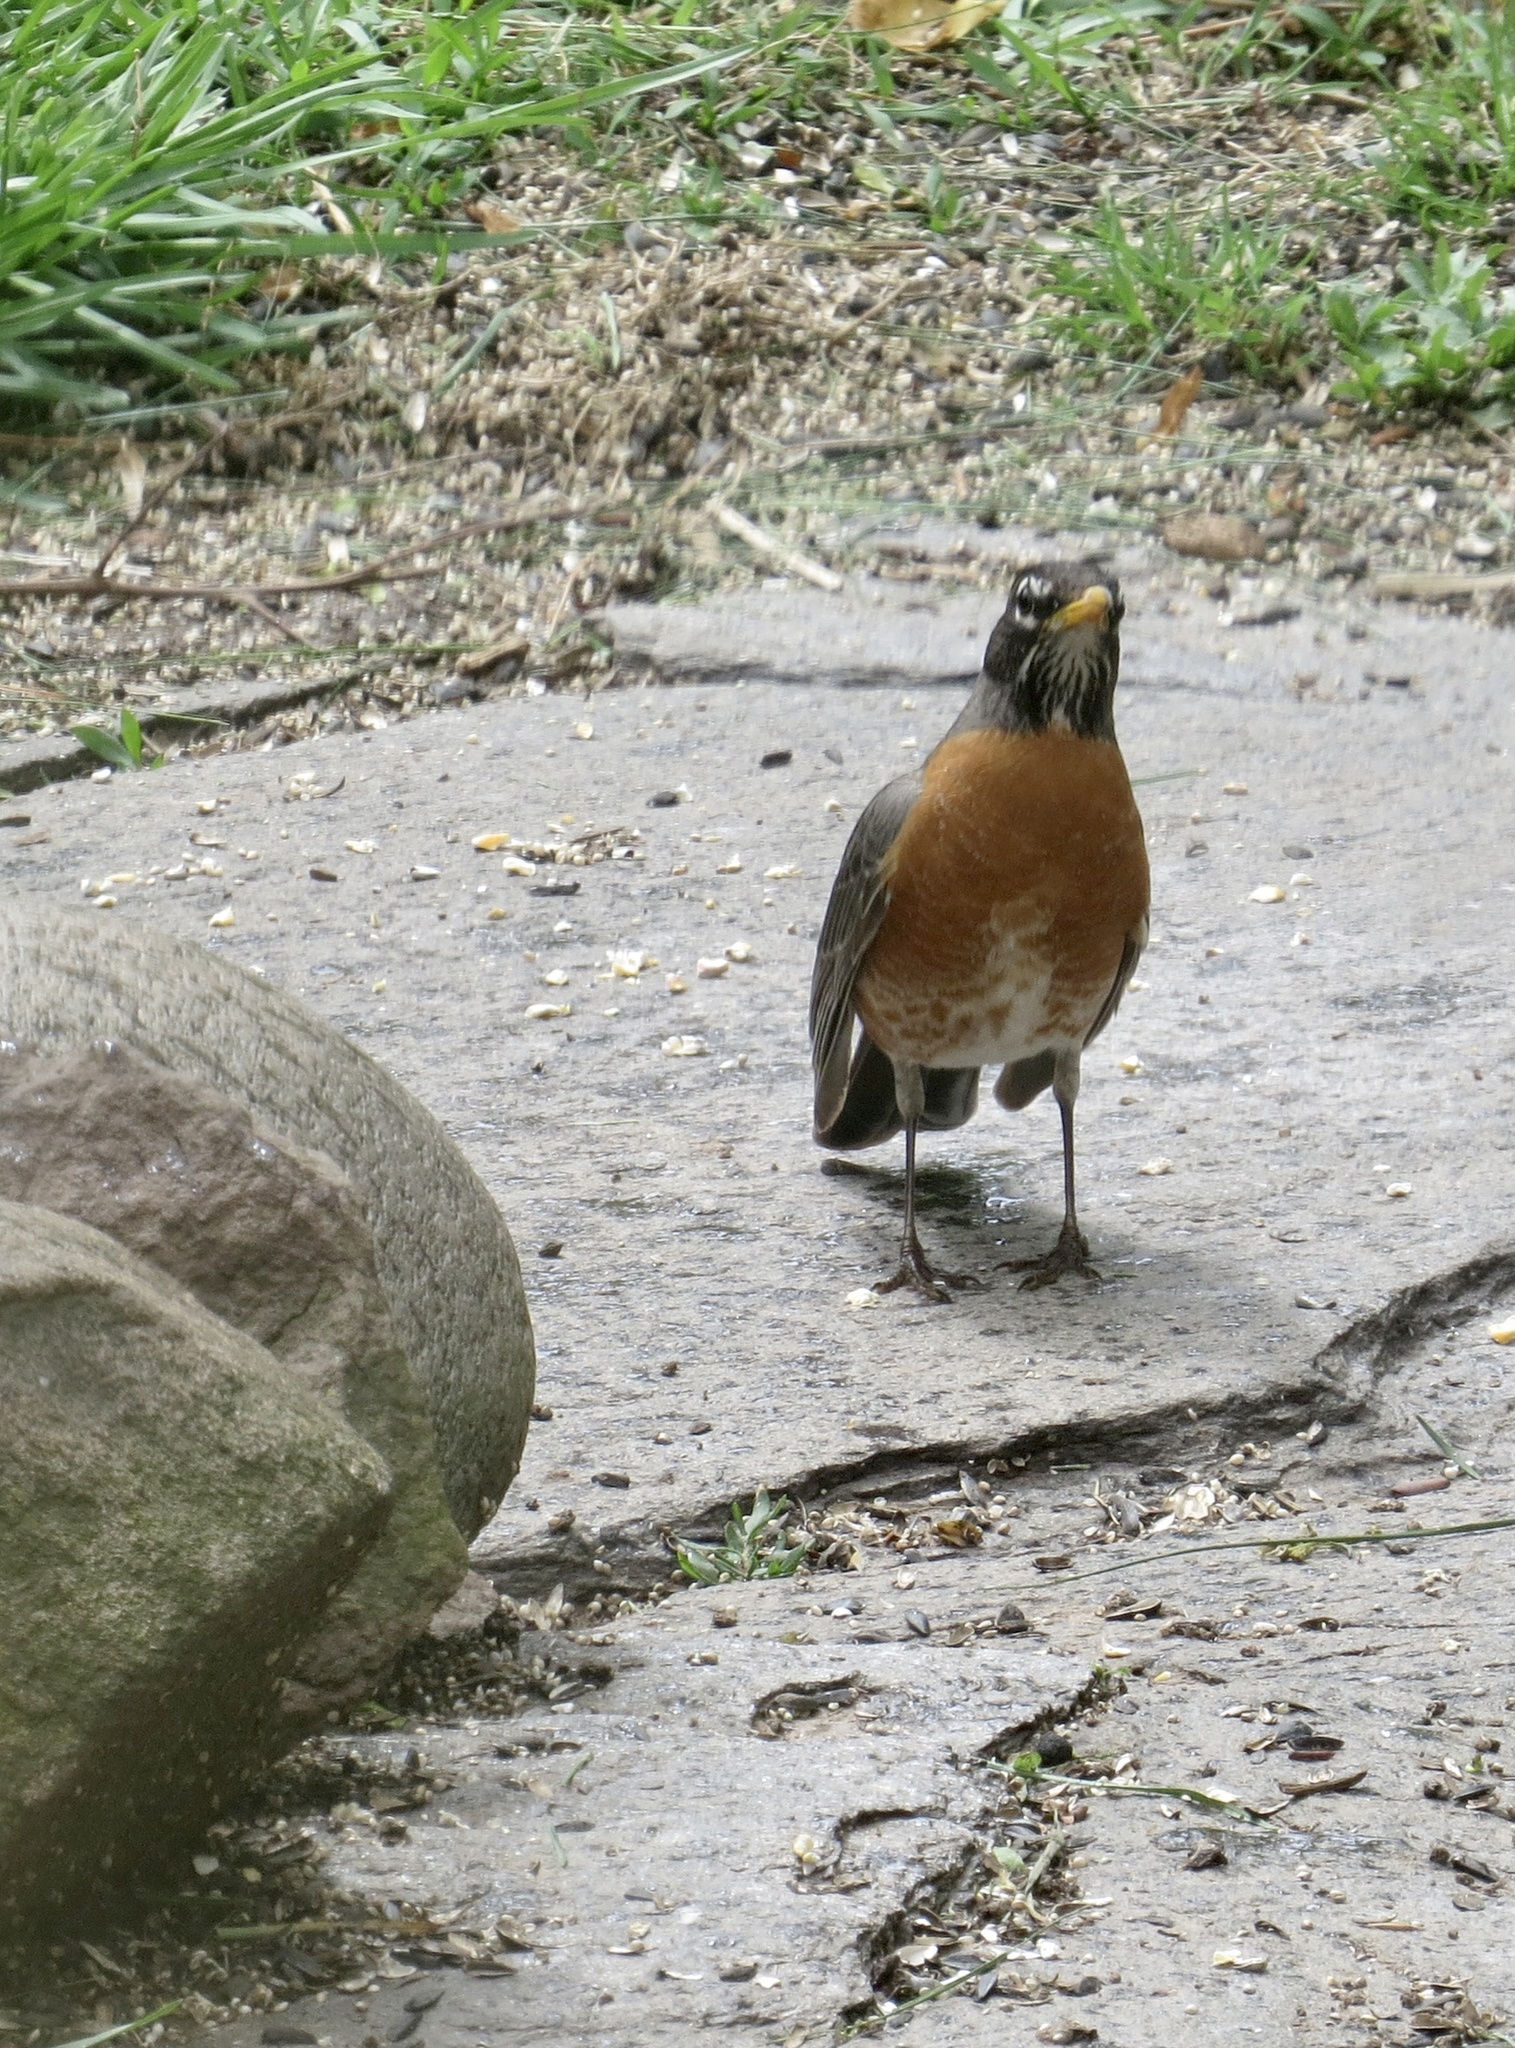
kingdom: Animalia
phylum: Chordata
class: Aves
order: Passeriformes
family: Turdidae
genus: Turdus
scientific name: Turdus migratorius
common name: American robin
